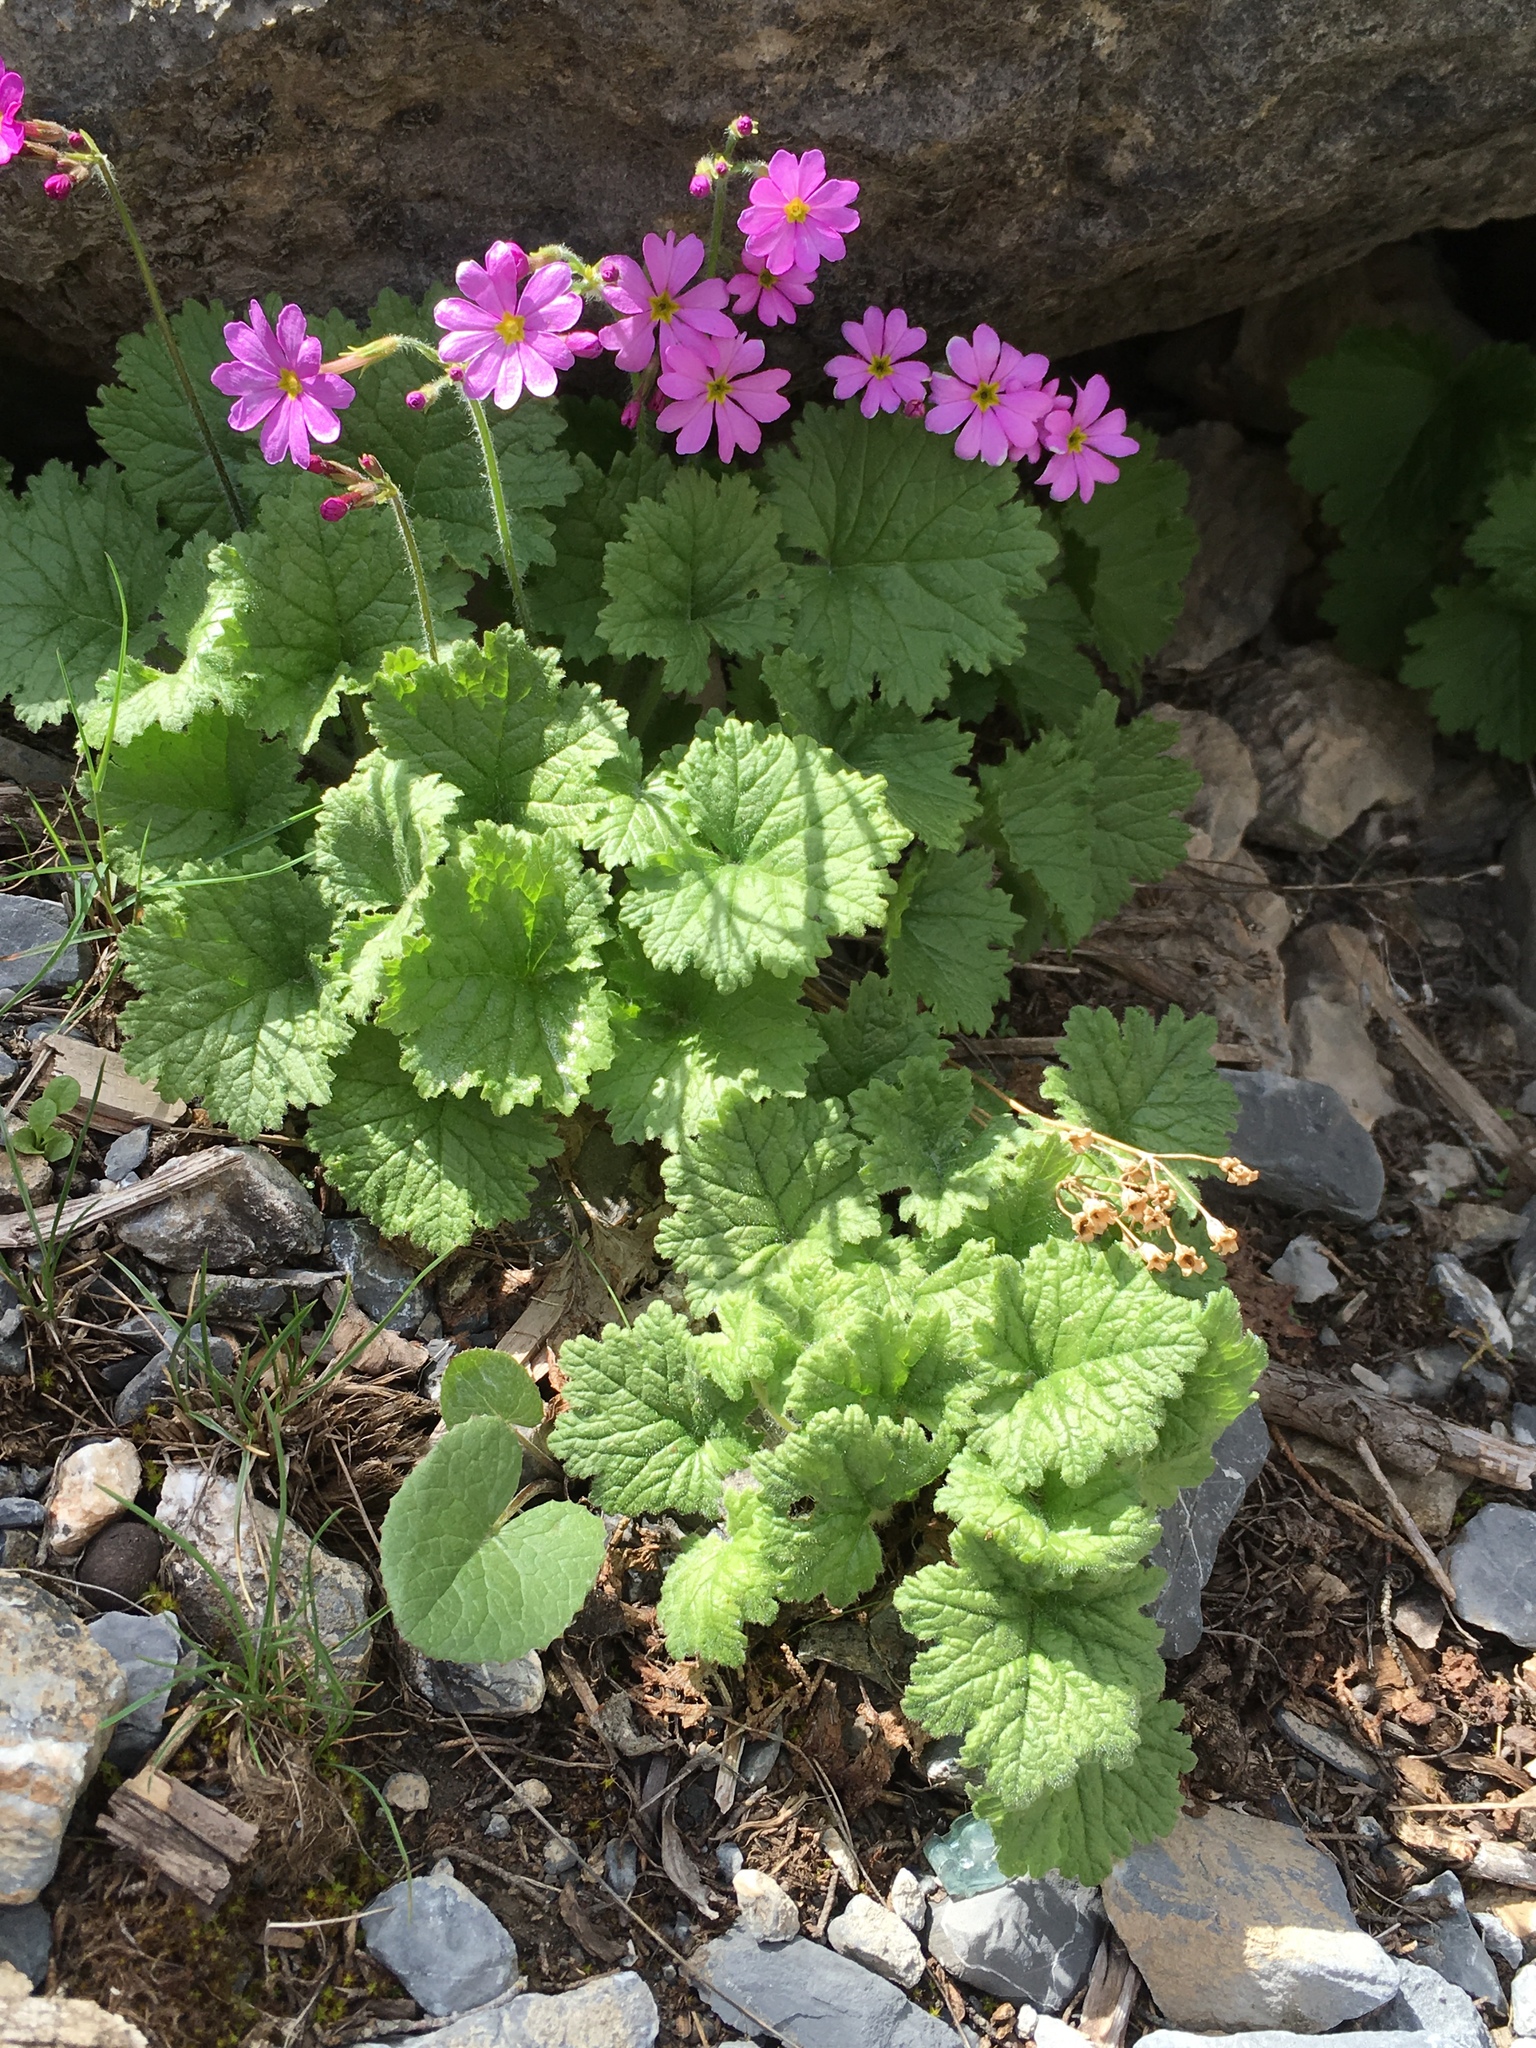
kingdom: Plantae
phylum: Tracheophyta
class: Magnoliopsida
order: Ericales
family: Primulaceae
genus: Primula
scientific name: Primula minkwitziae
